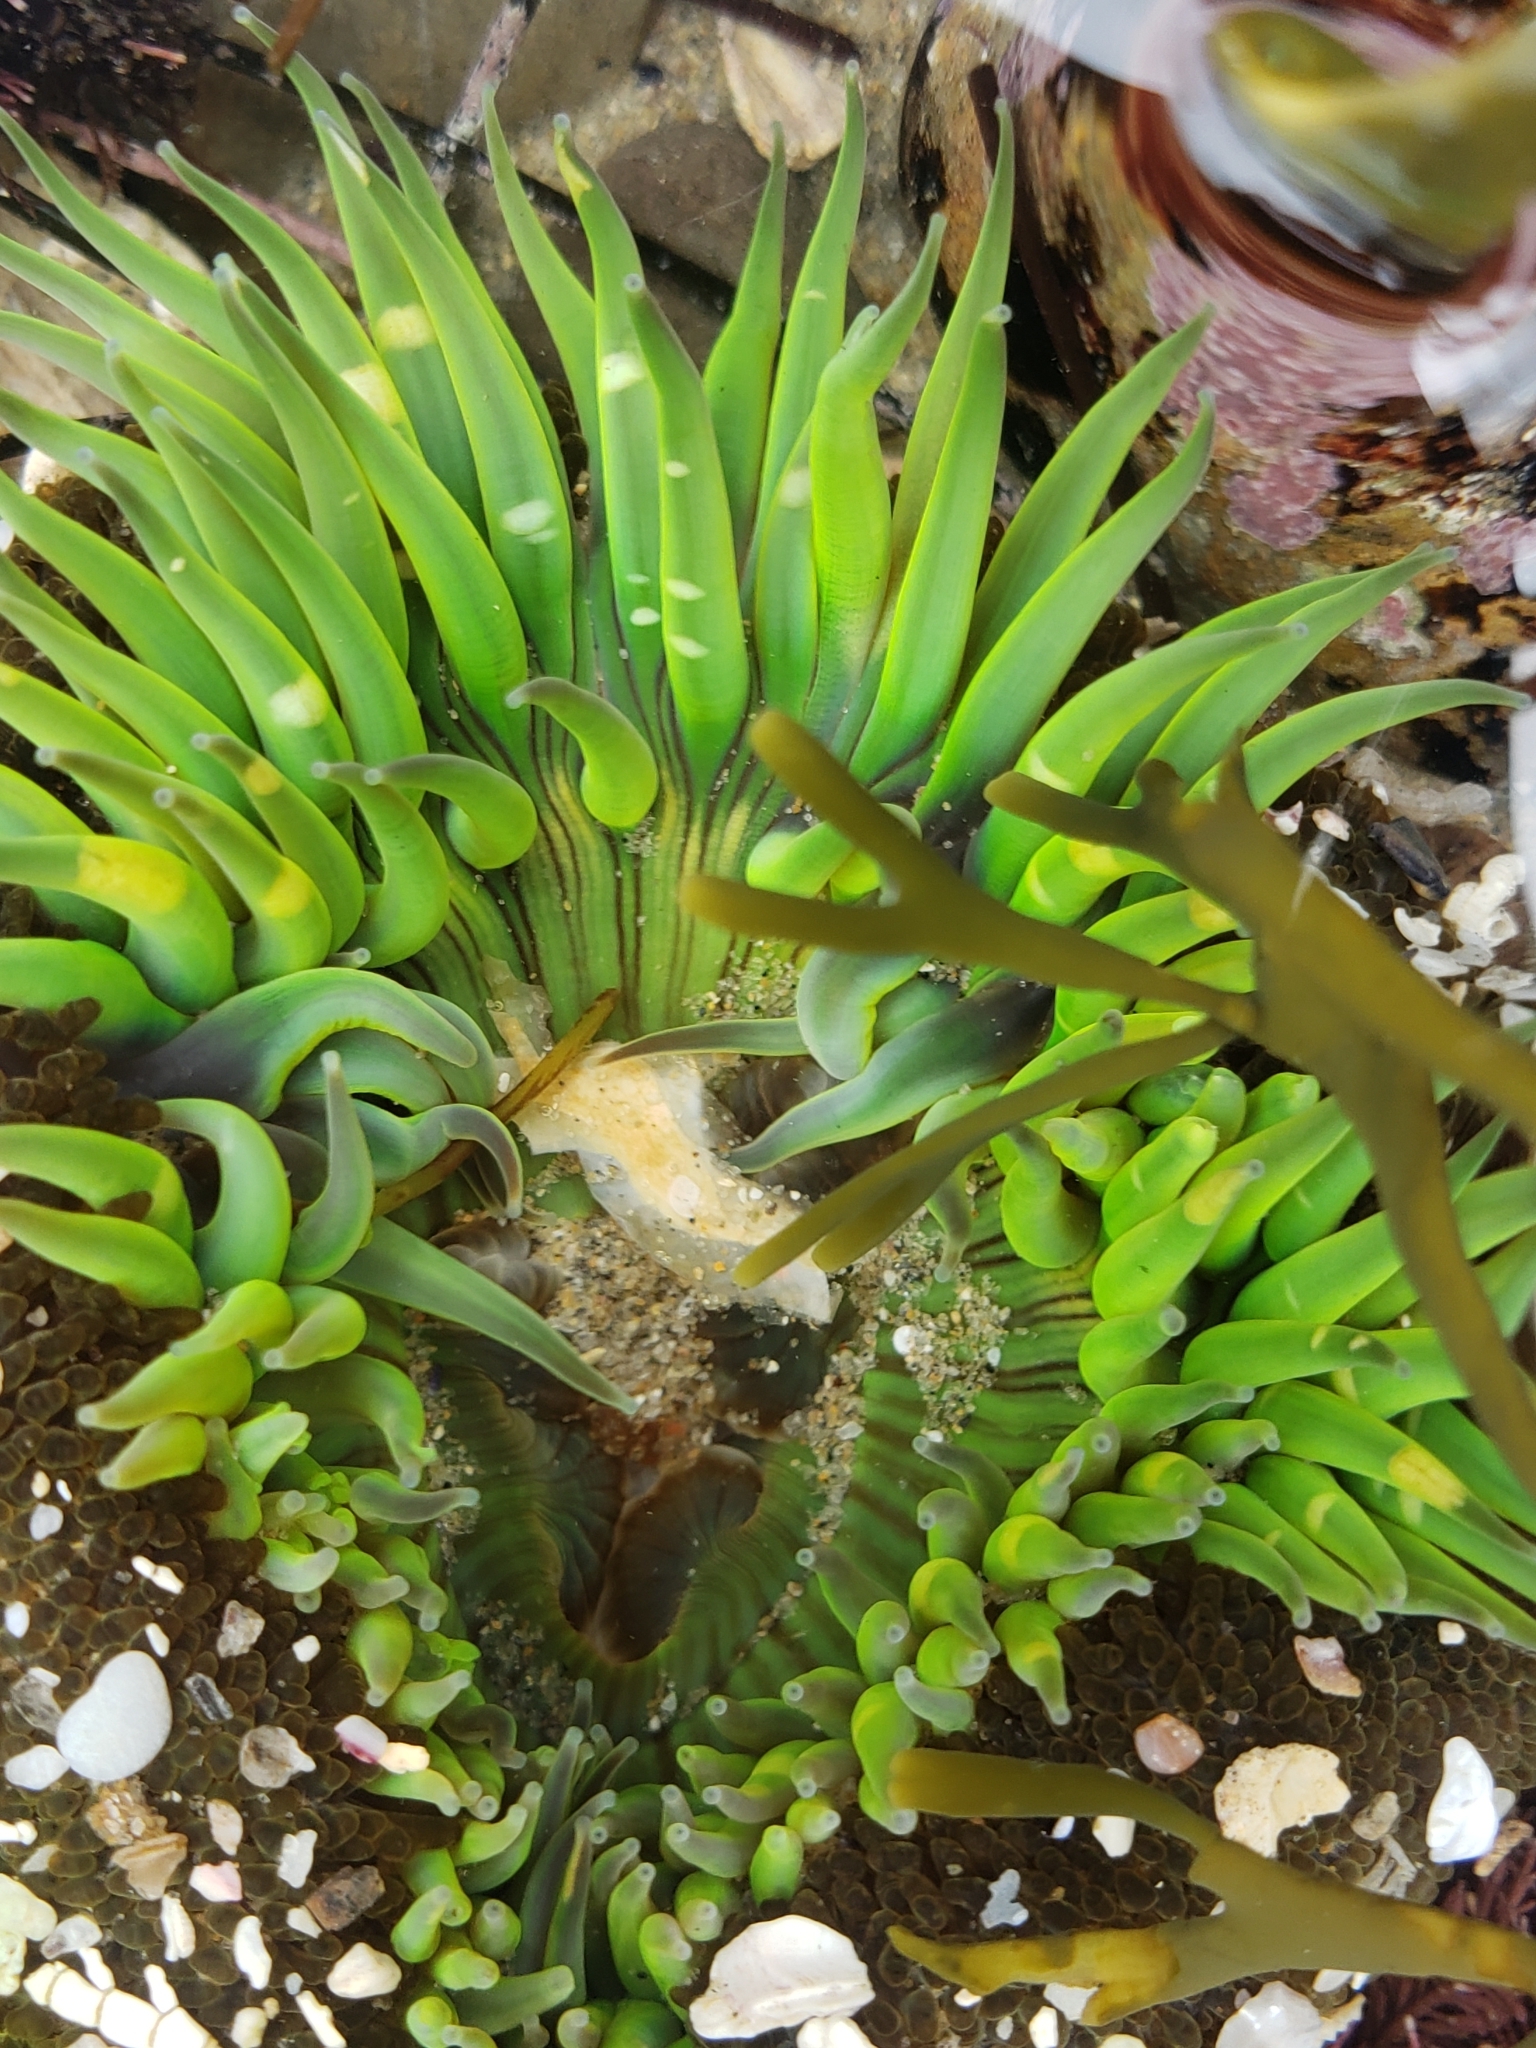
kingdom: Animalia
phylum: Cnidaria
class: Anthozoa
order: Actiniaria
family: Actiniidae
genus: Anthopleura
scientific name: Anthopleura sola
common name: Sun anemone
